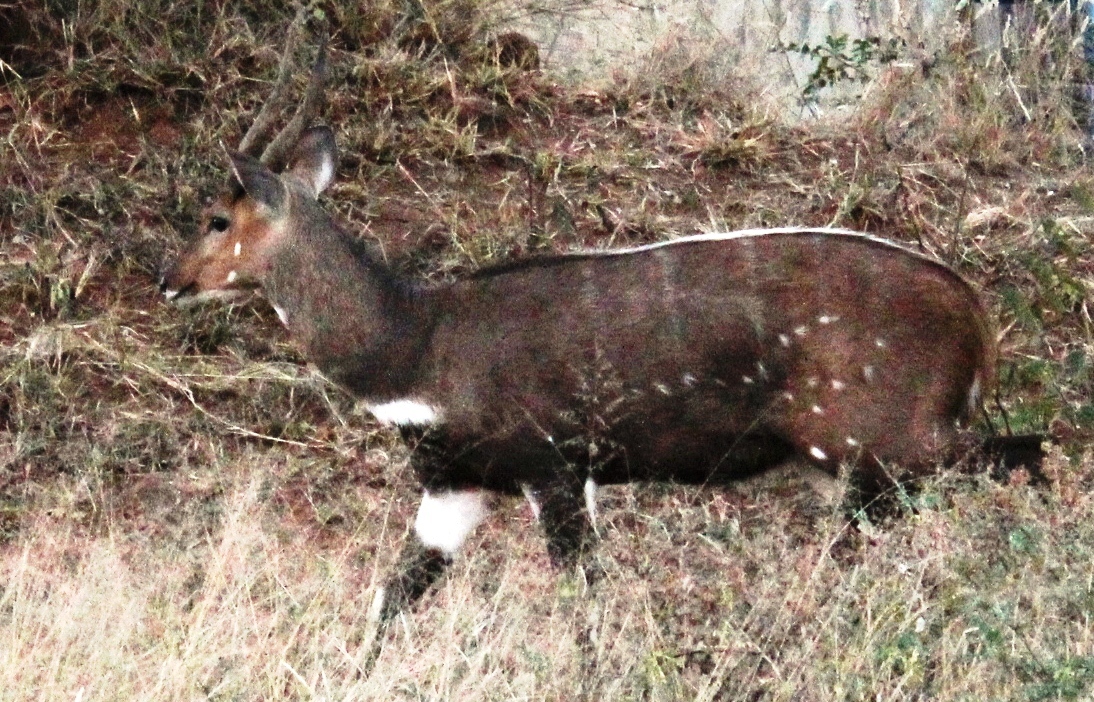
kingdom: Animalia
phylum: Chordata
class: Mammalia
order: Artiodactyla
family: Bovidae
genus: Tragelaphus
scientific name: Tragelaphus scriptus
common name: Bushbuck
